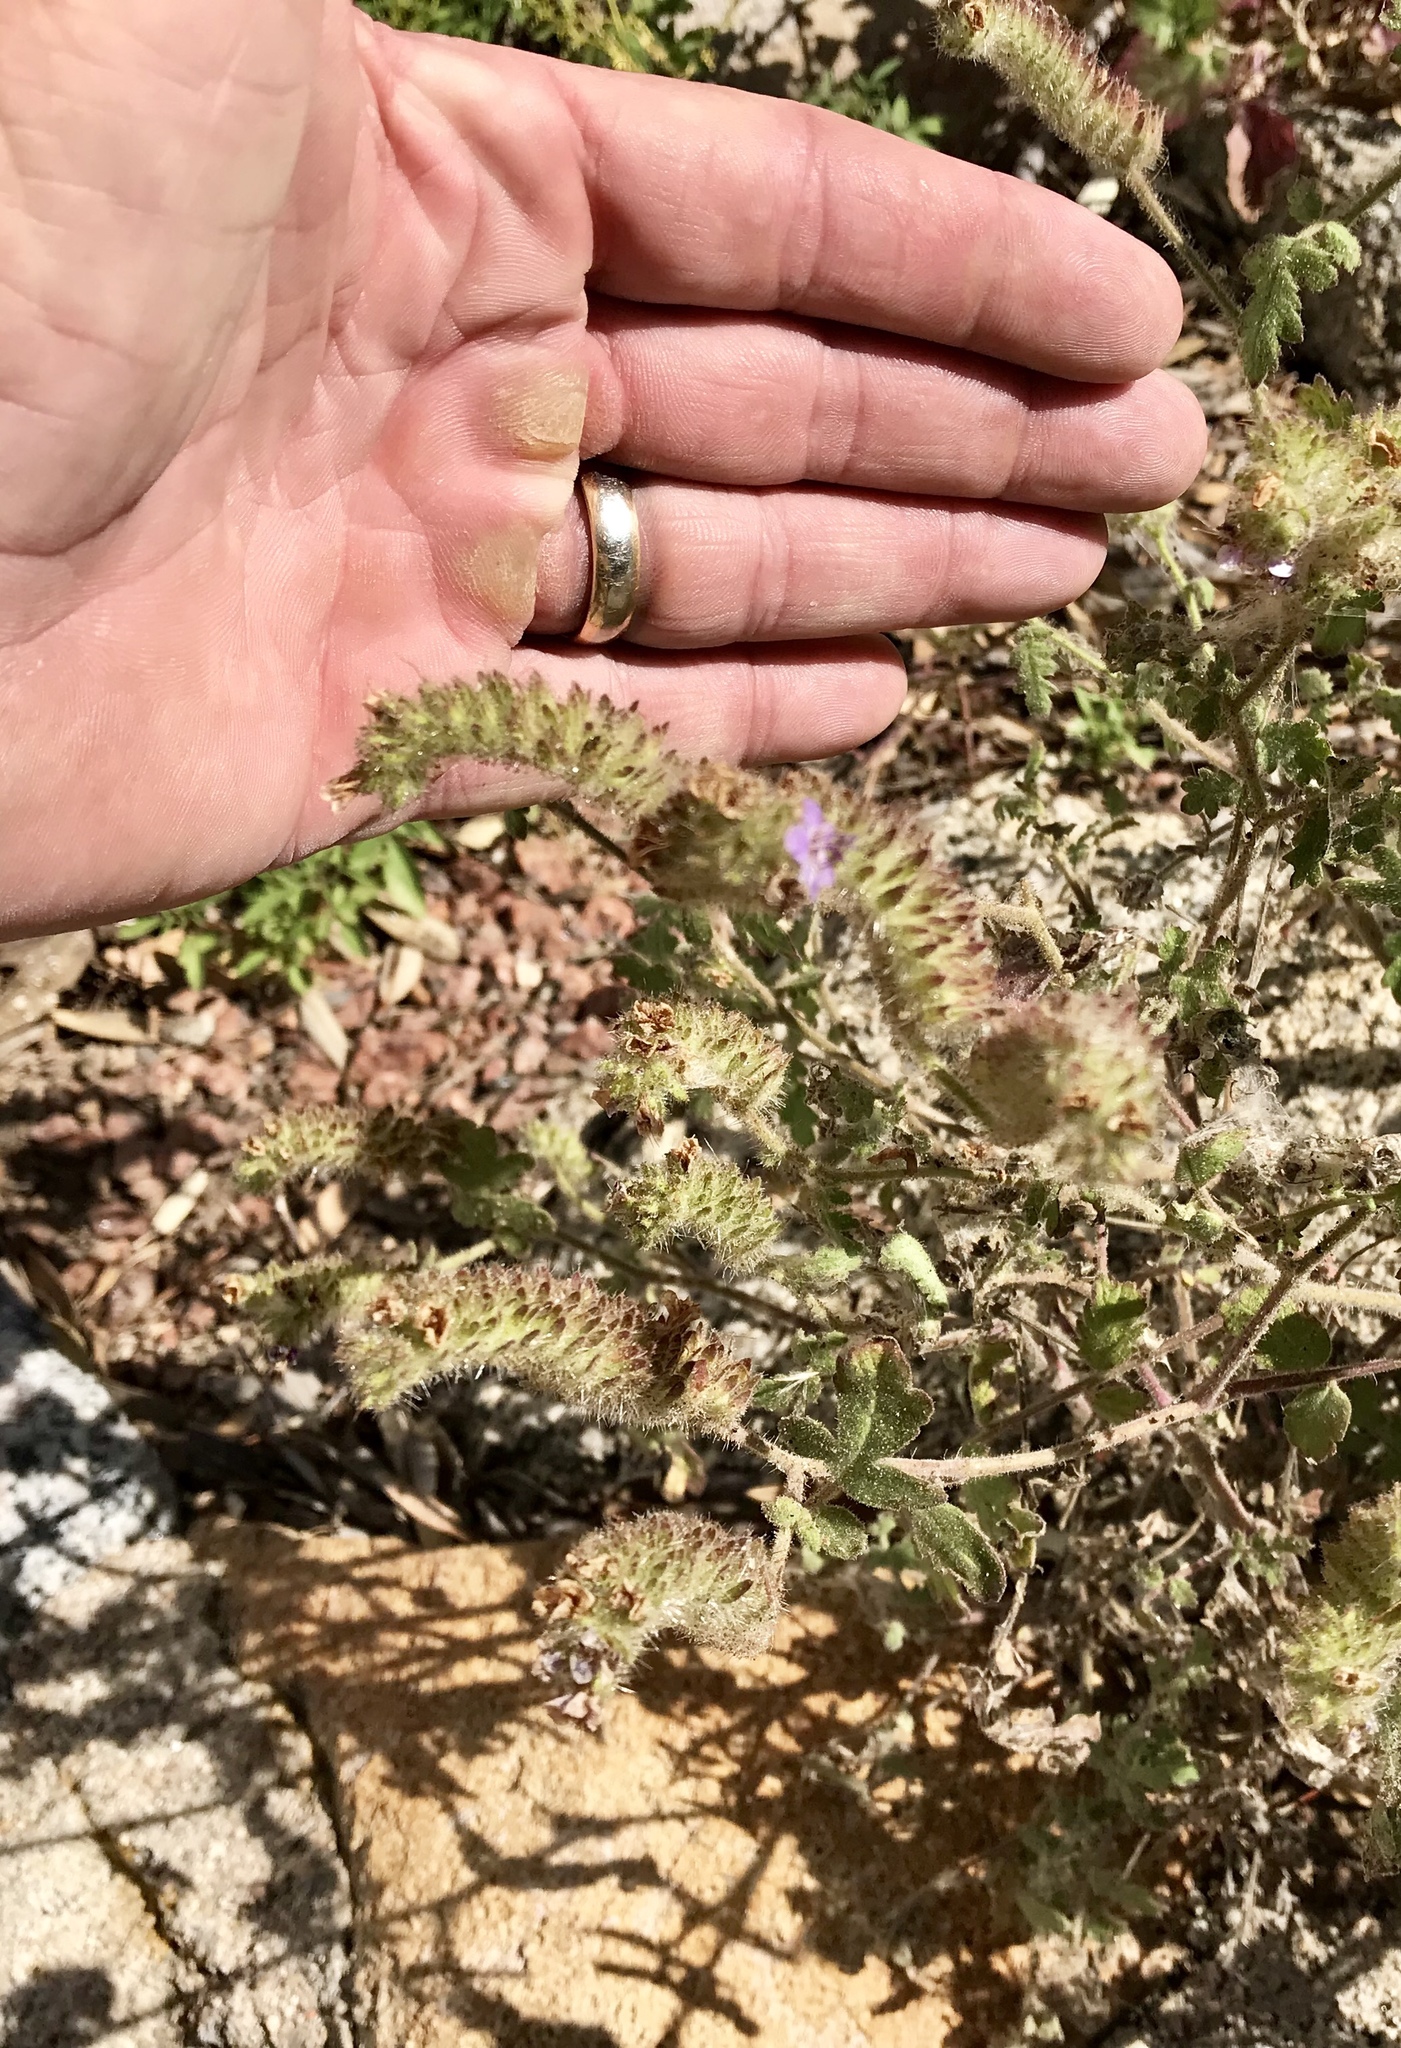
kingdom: Plantae
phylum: Tracheophyta
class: Magnoliopsida
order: Boraginales
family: Hydrophyllaceae
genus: Phacelia
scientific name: Phacelia ramosissima
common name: Branching phacelia
